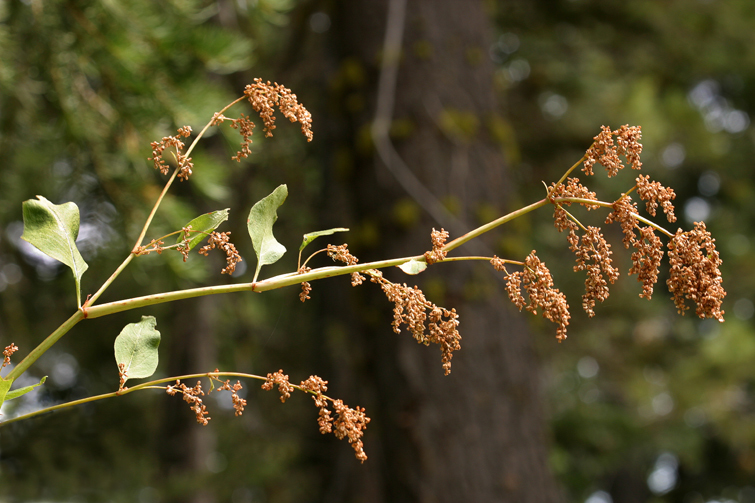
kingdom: Plantae
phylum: Tracheophyta
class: Magnoliopsida
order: Caryophyllales
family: Polygonaceae
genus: Koenigia
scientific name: Koenigia phytolaccifolia
